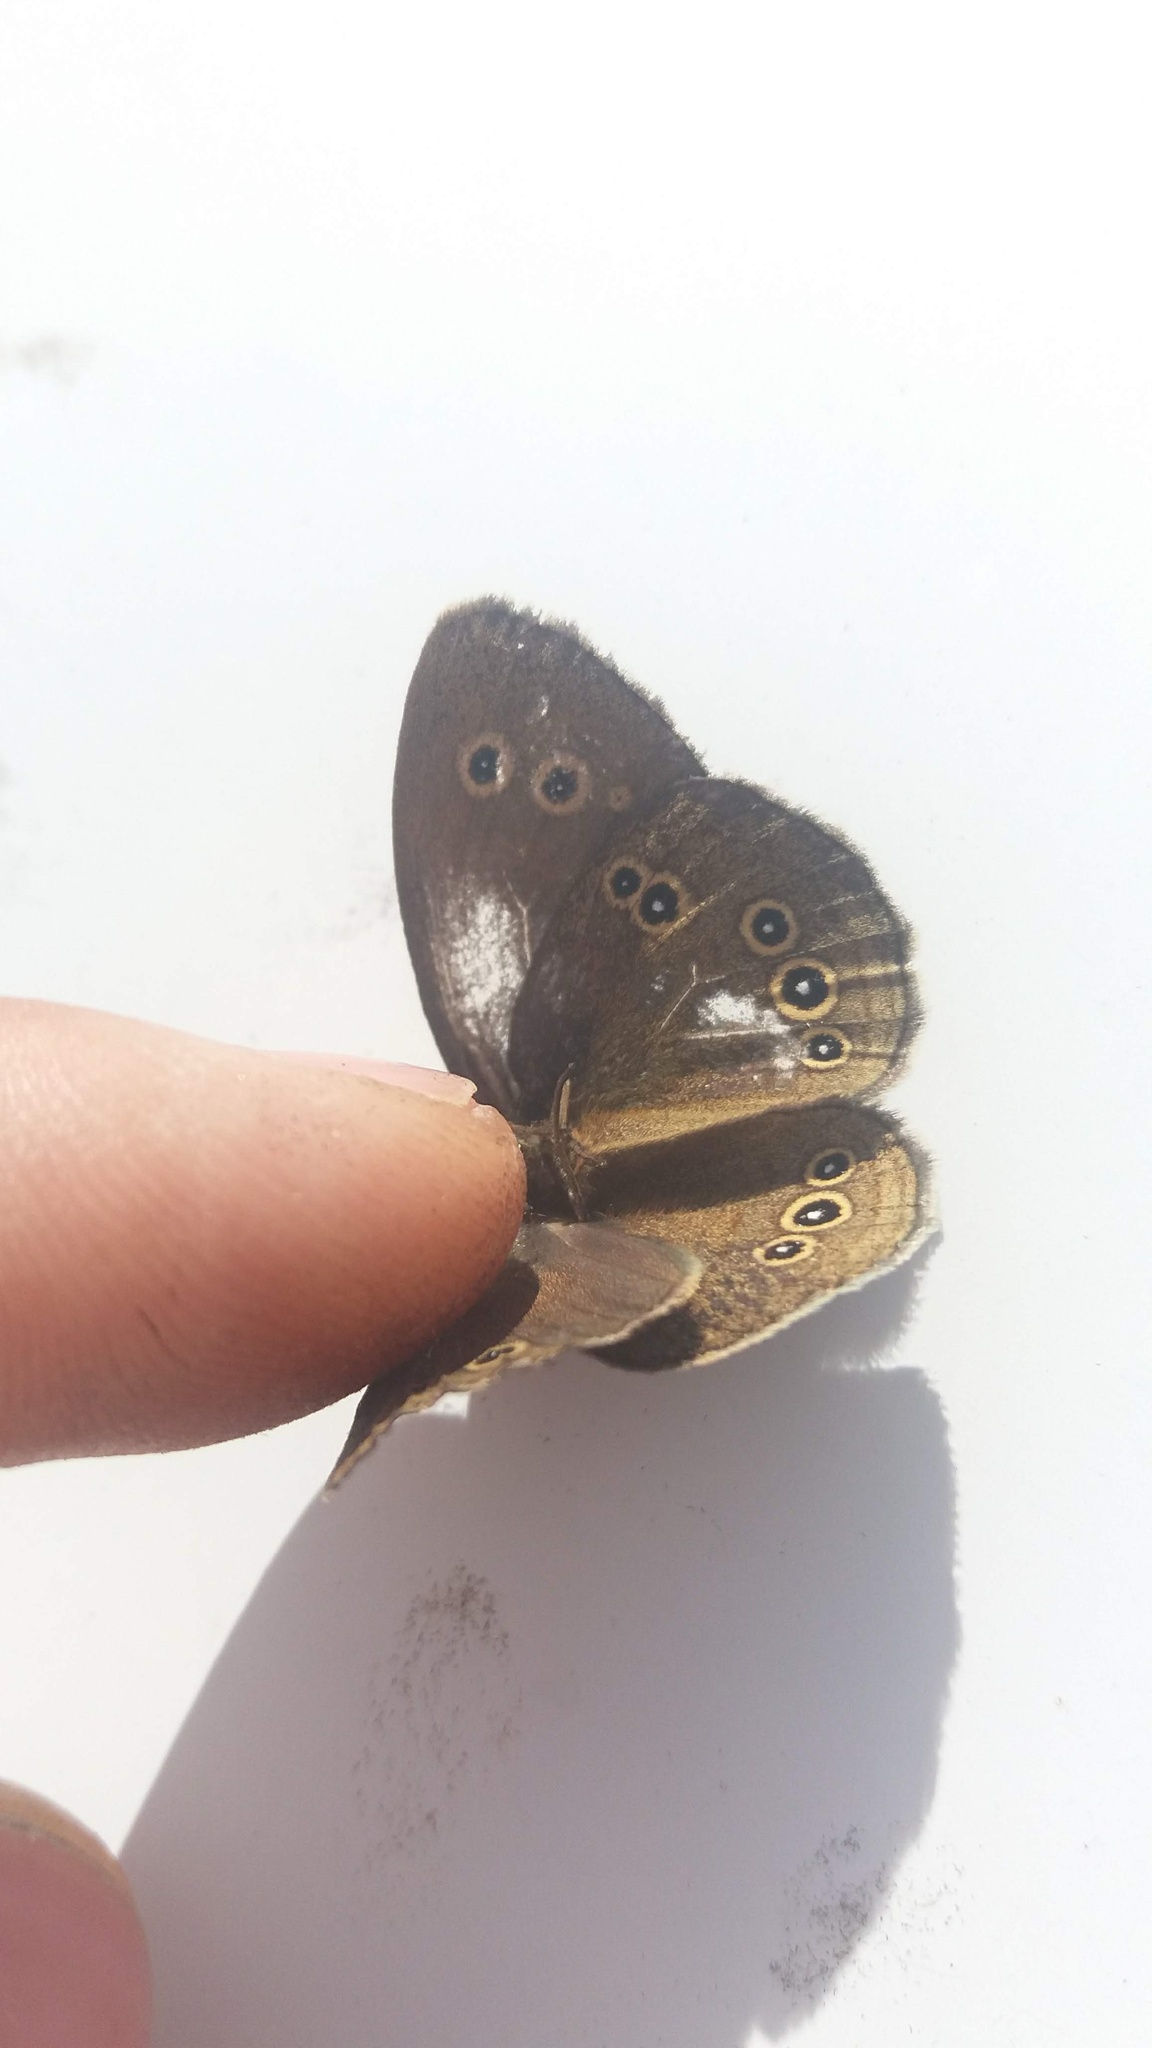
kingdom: Animalia
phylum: Arthropoda
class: Insecta
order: Lepidoptera
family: Nymphalidae
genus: Aphantopus
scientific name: Aphantopus hyperantus
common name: Ringlet
